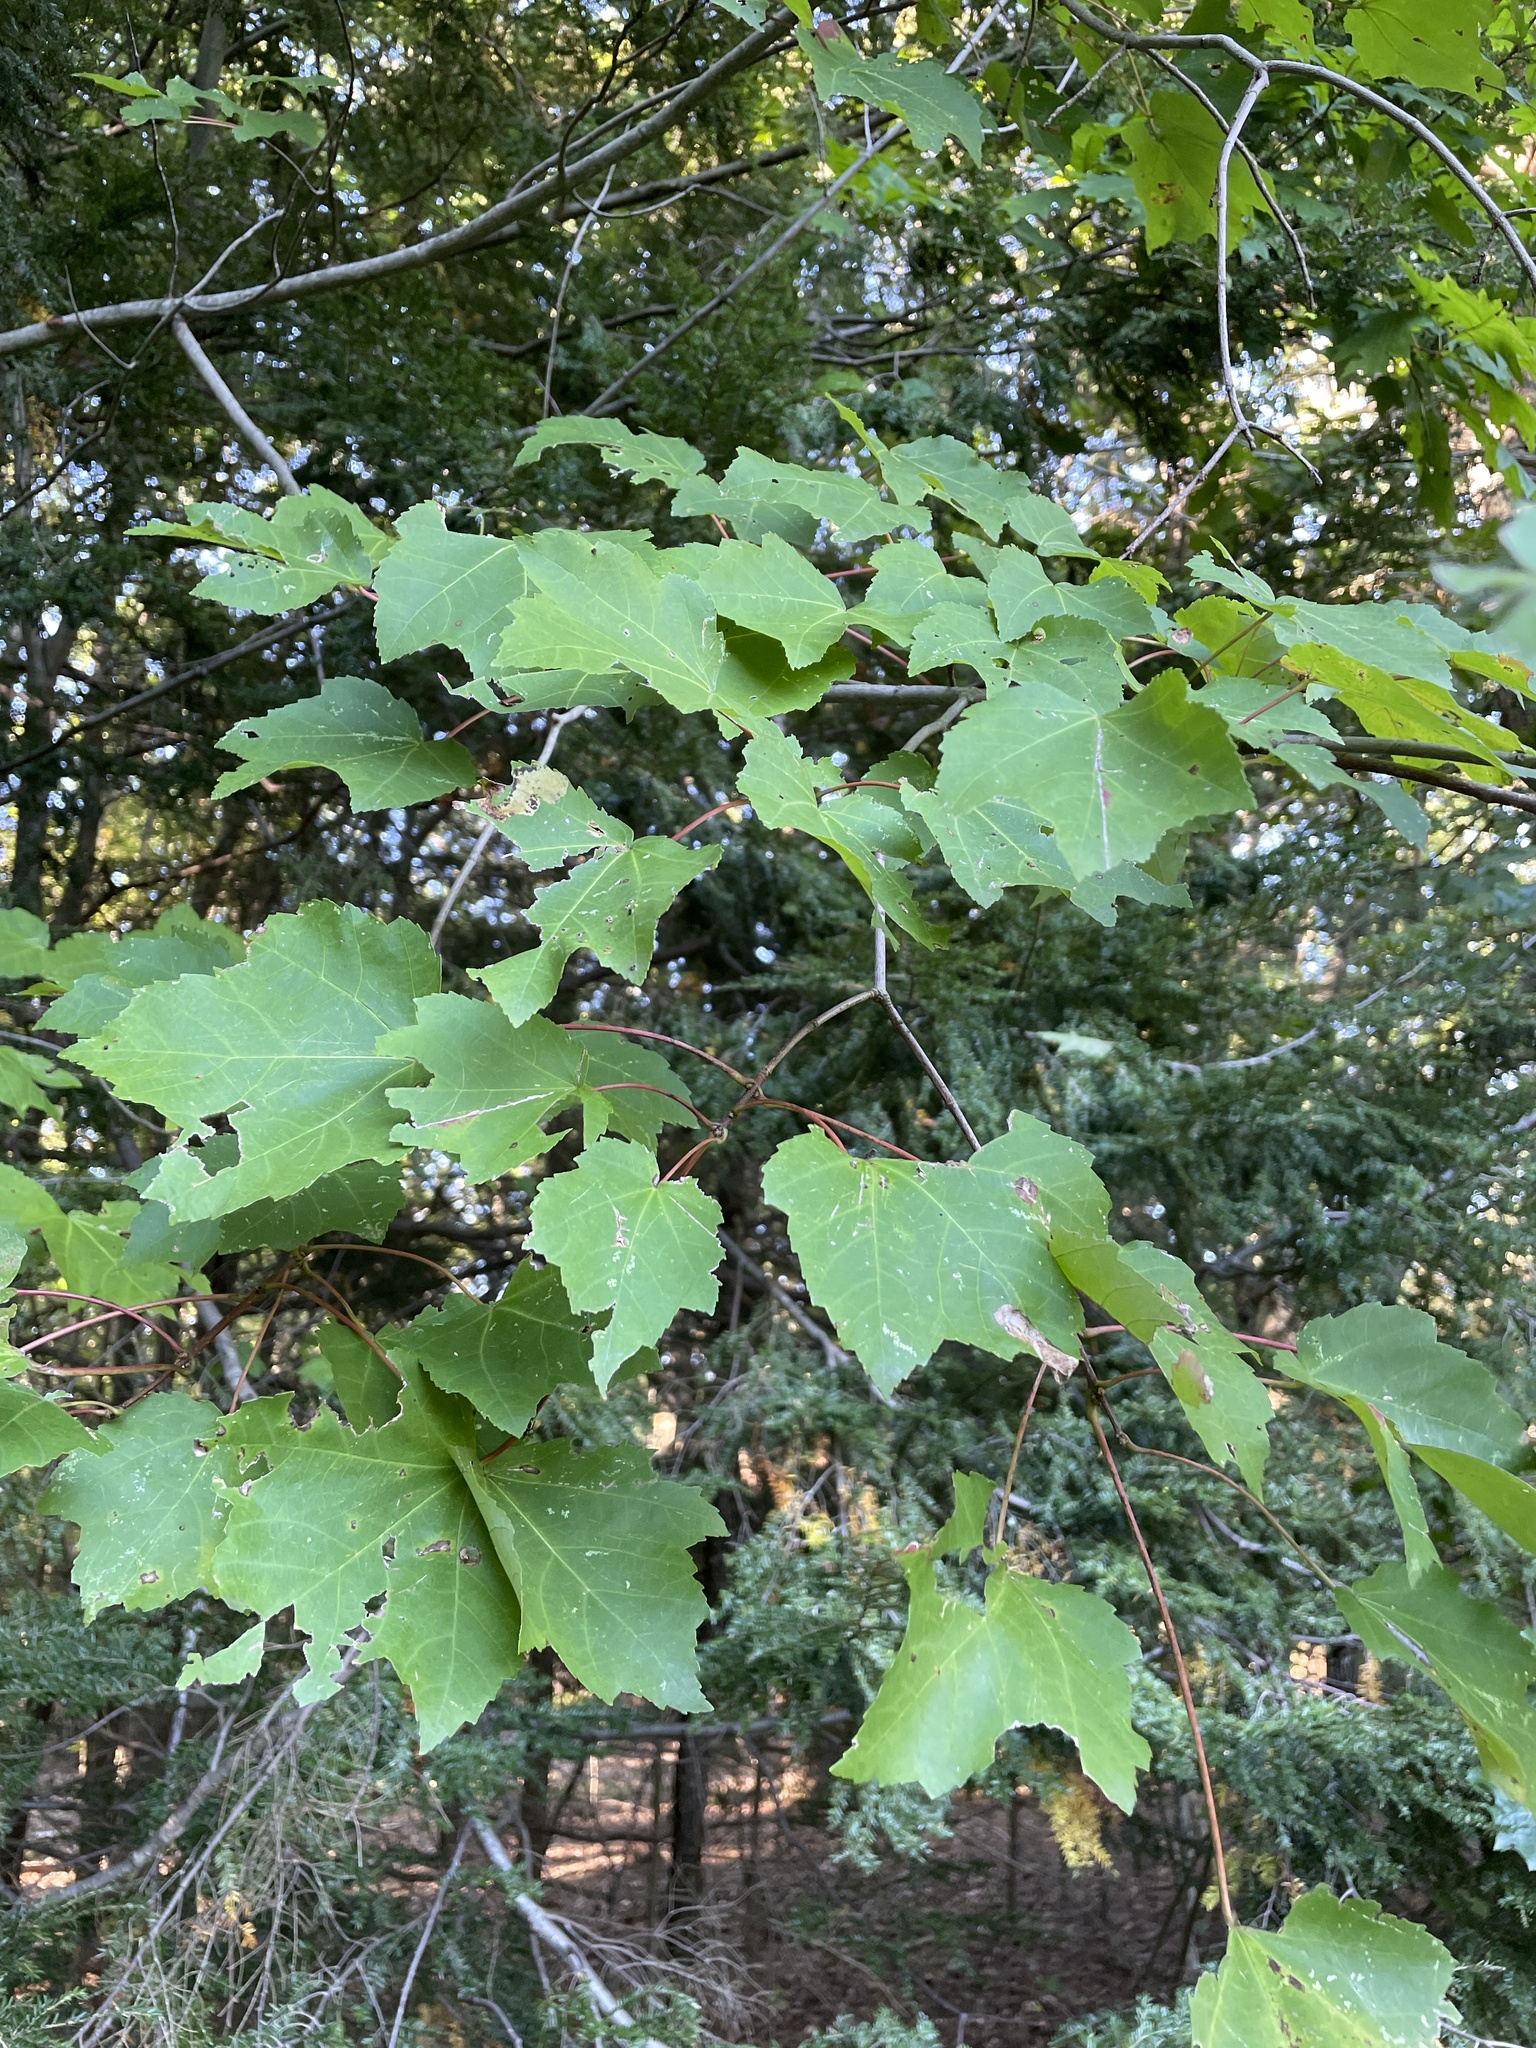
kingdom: Plantae
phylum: Tracheophyta
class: Magnoliopsida
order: Sapindales
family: Sapindaceae
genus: Acer
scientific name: Acer rubrum
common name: Red maple
